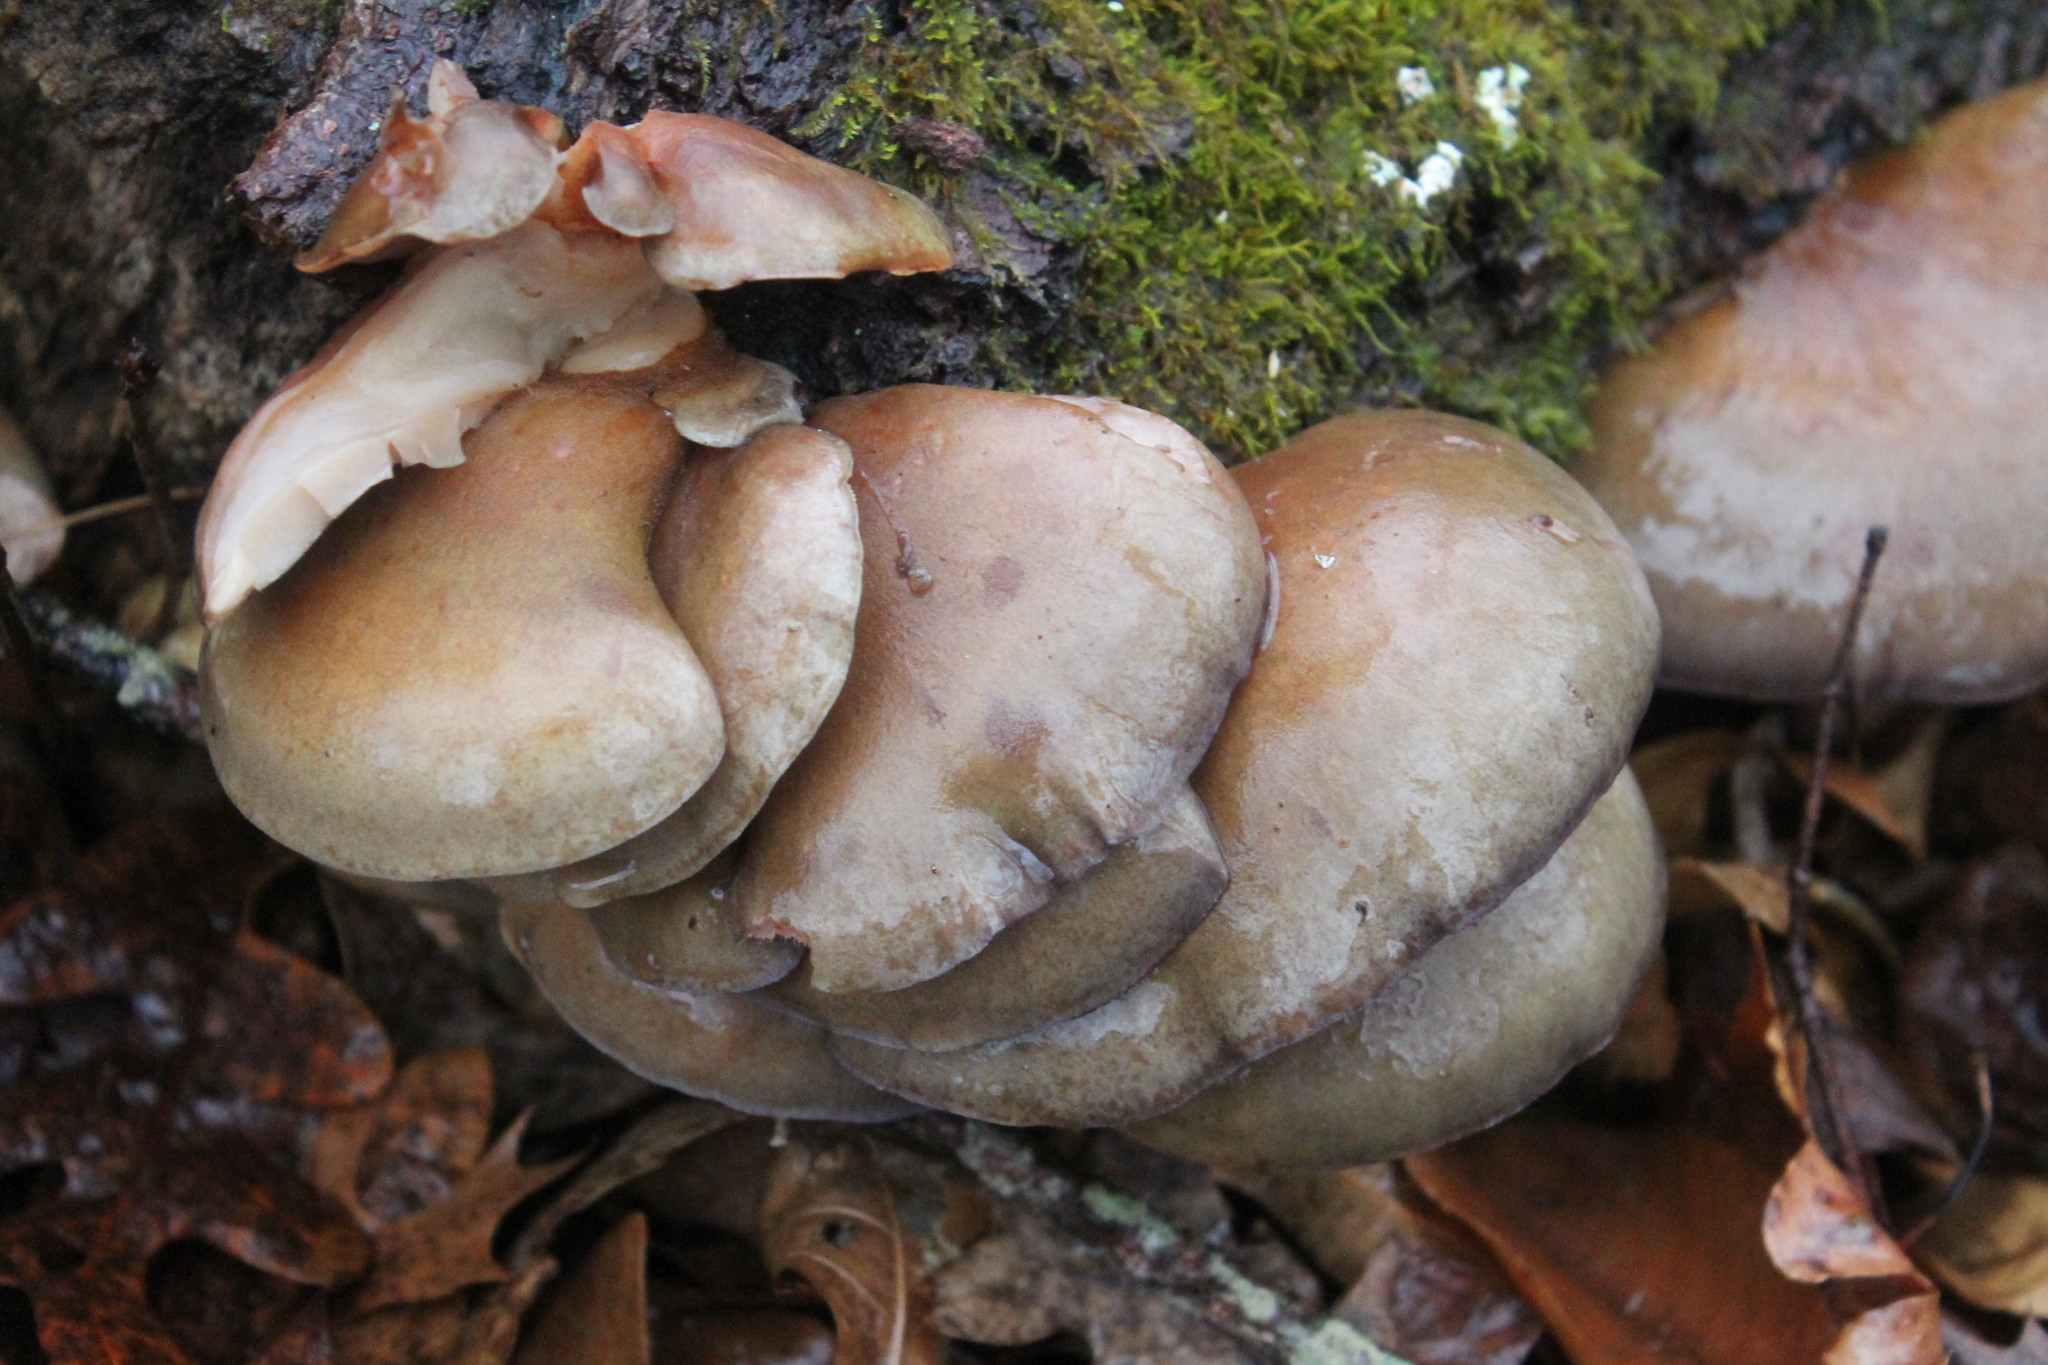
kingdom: Fungi
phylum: Basidiomycota
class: Agaricomycetes
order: Agaricales
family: Sarcomyxaceae
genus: Sarcomyxa
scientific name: Sarcomyxa serotina
